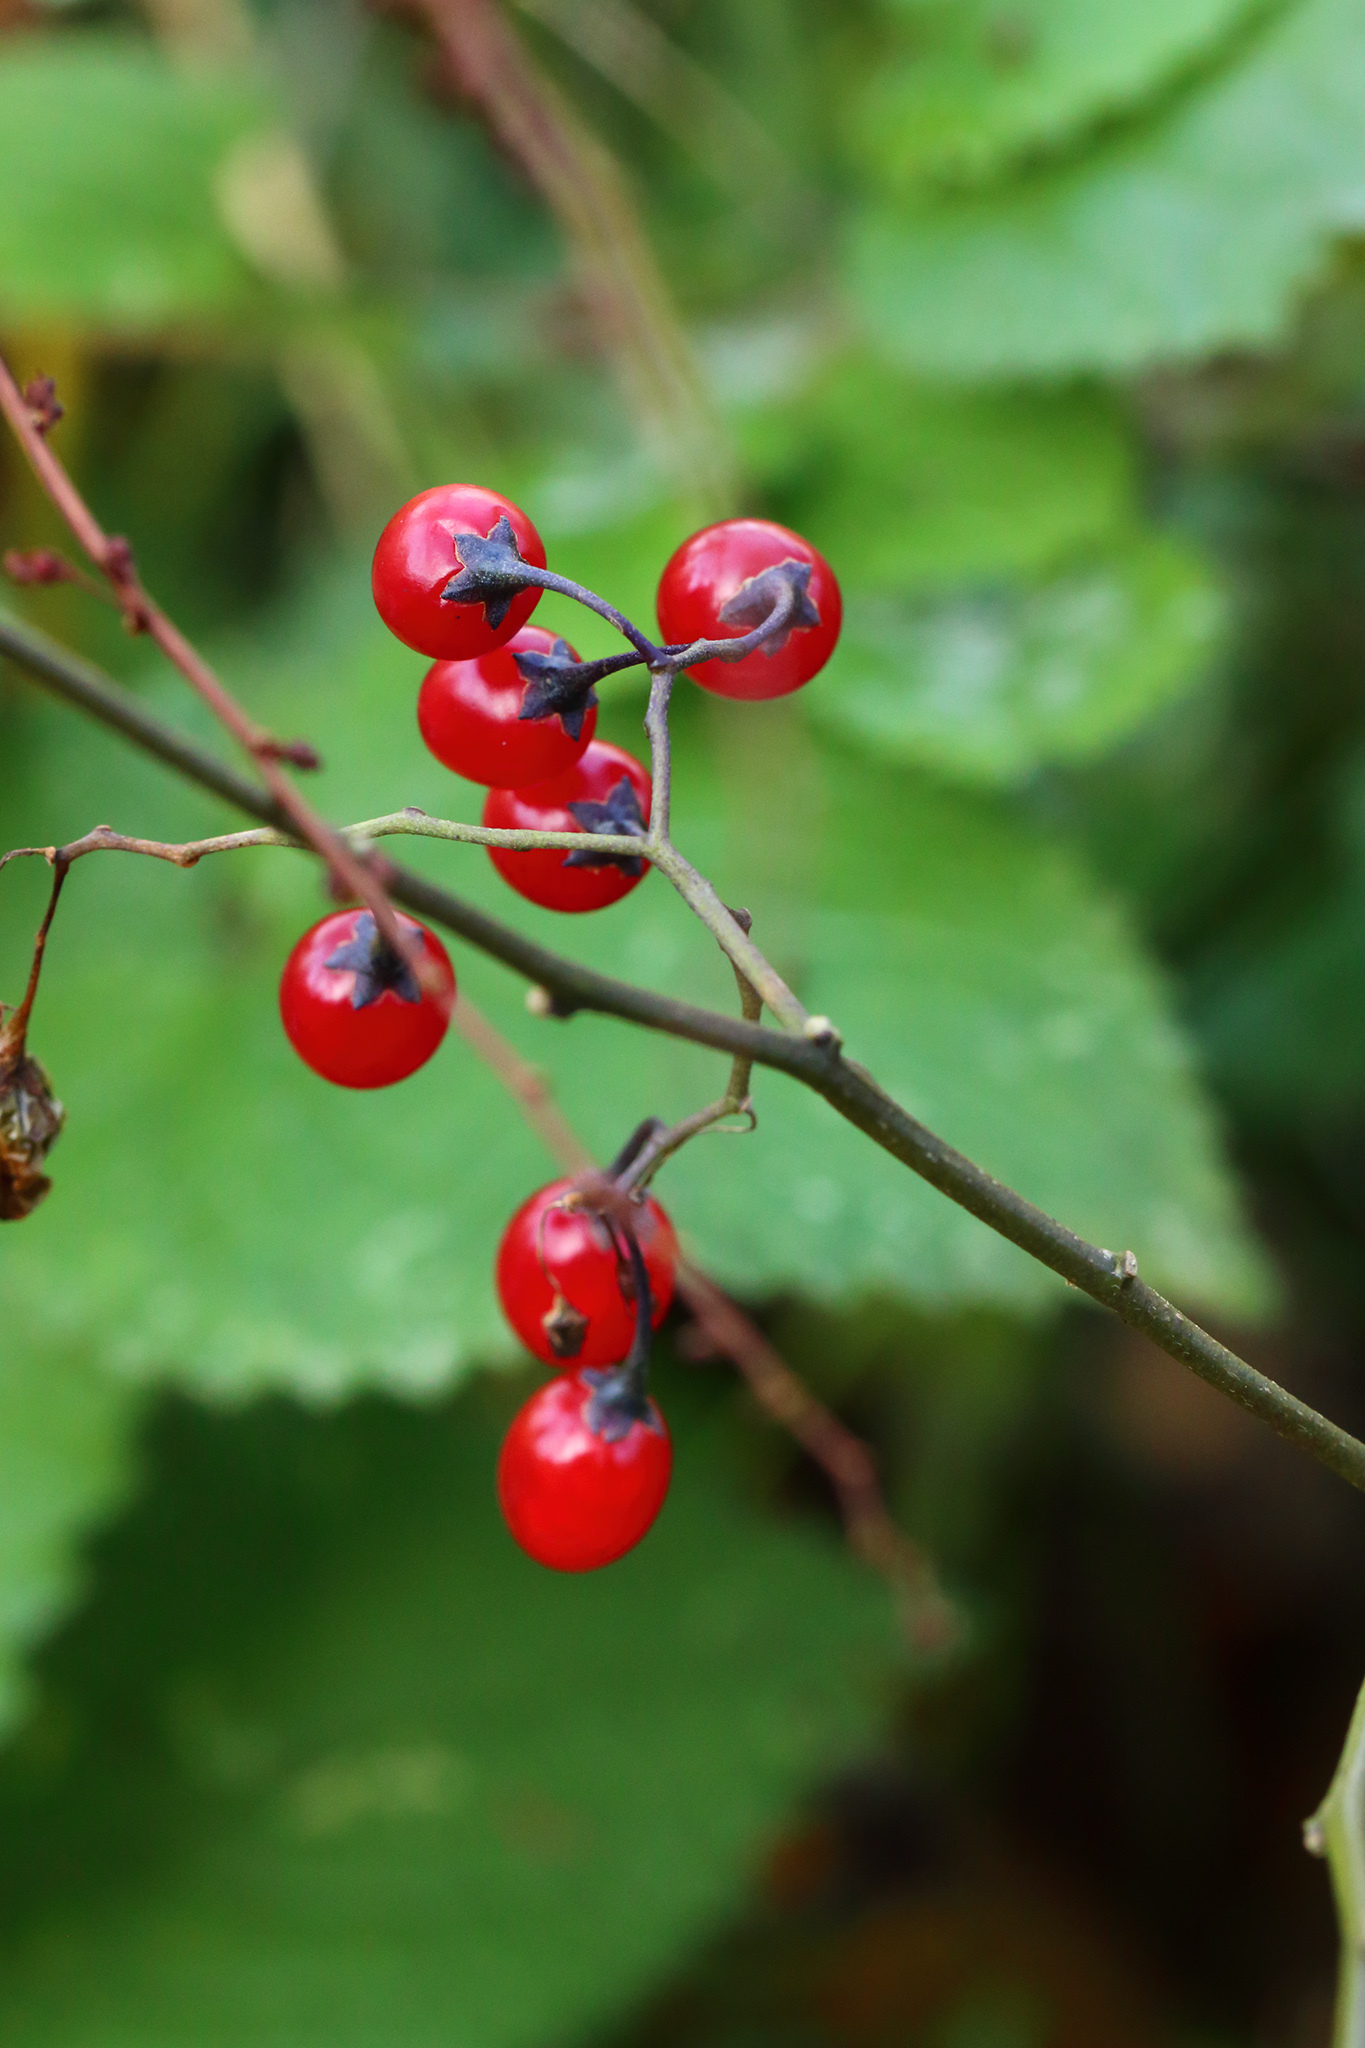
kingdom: Plantae
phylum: Tracheophyta
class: Magnoliopsida
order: Solanales
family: Solanaceae
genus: Solanum
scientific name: Solanum dulcamara
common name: Climbing nightshade
